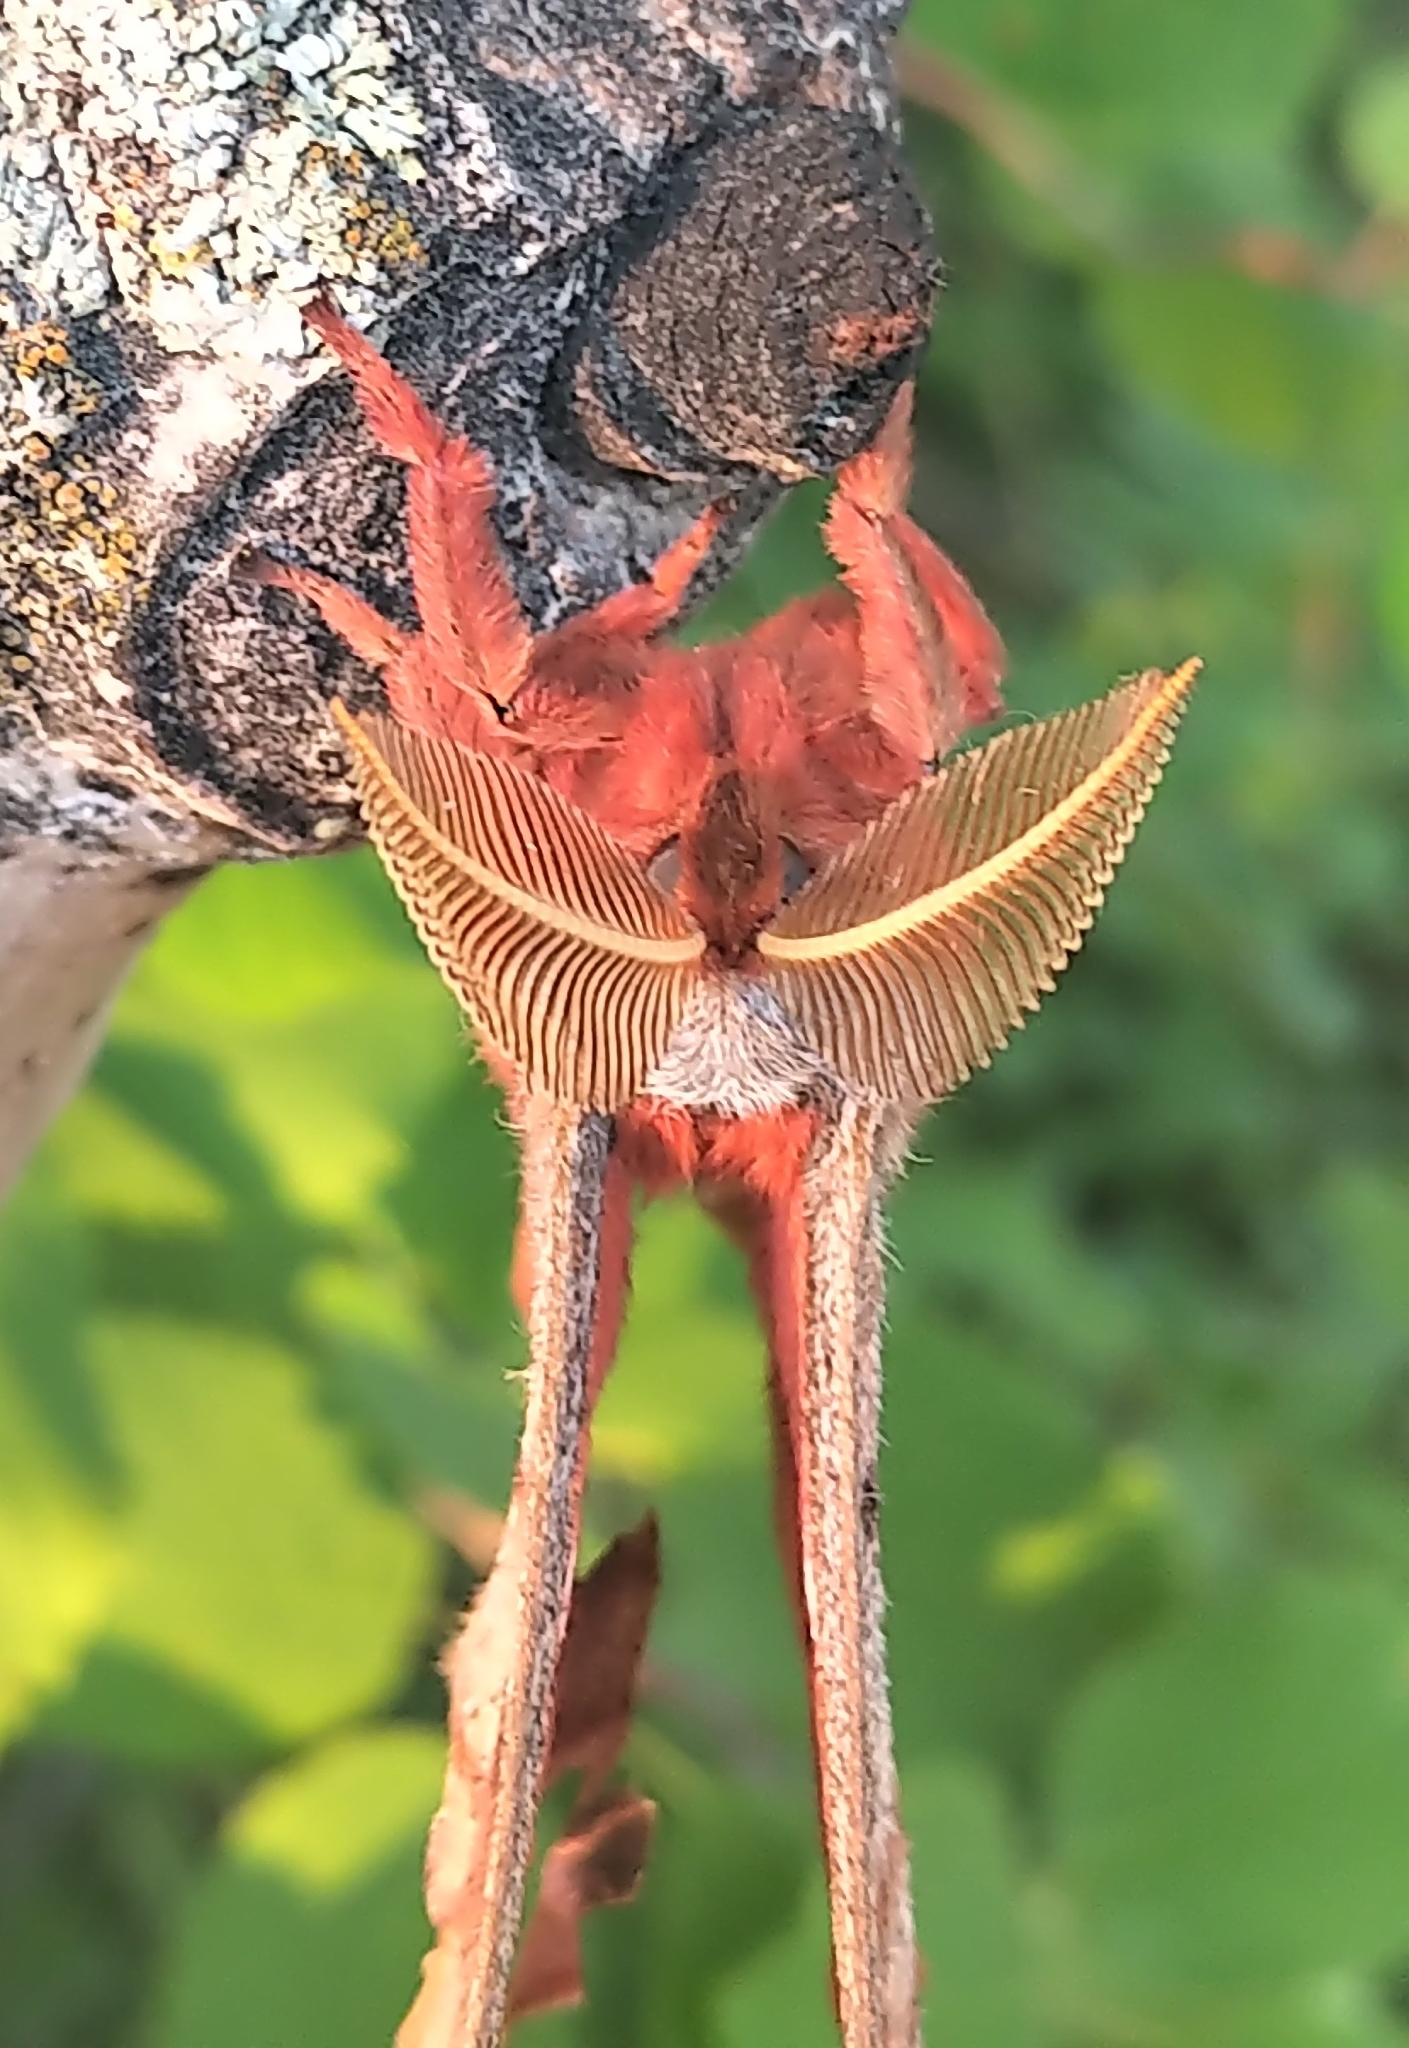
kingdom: Animalia
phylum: Arthropoda
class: Insecta
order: Lepidoptera
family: Saturniidae
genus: Antheraea
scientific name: Antheraea polyphemus
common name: Polyphemus moth
